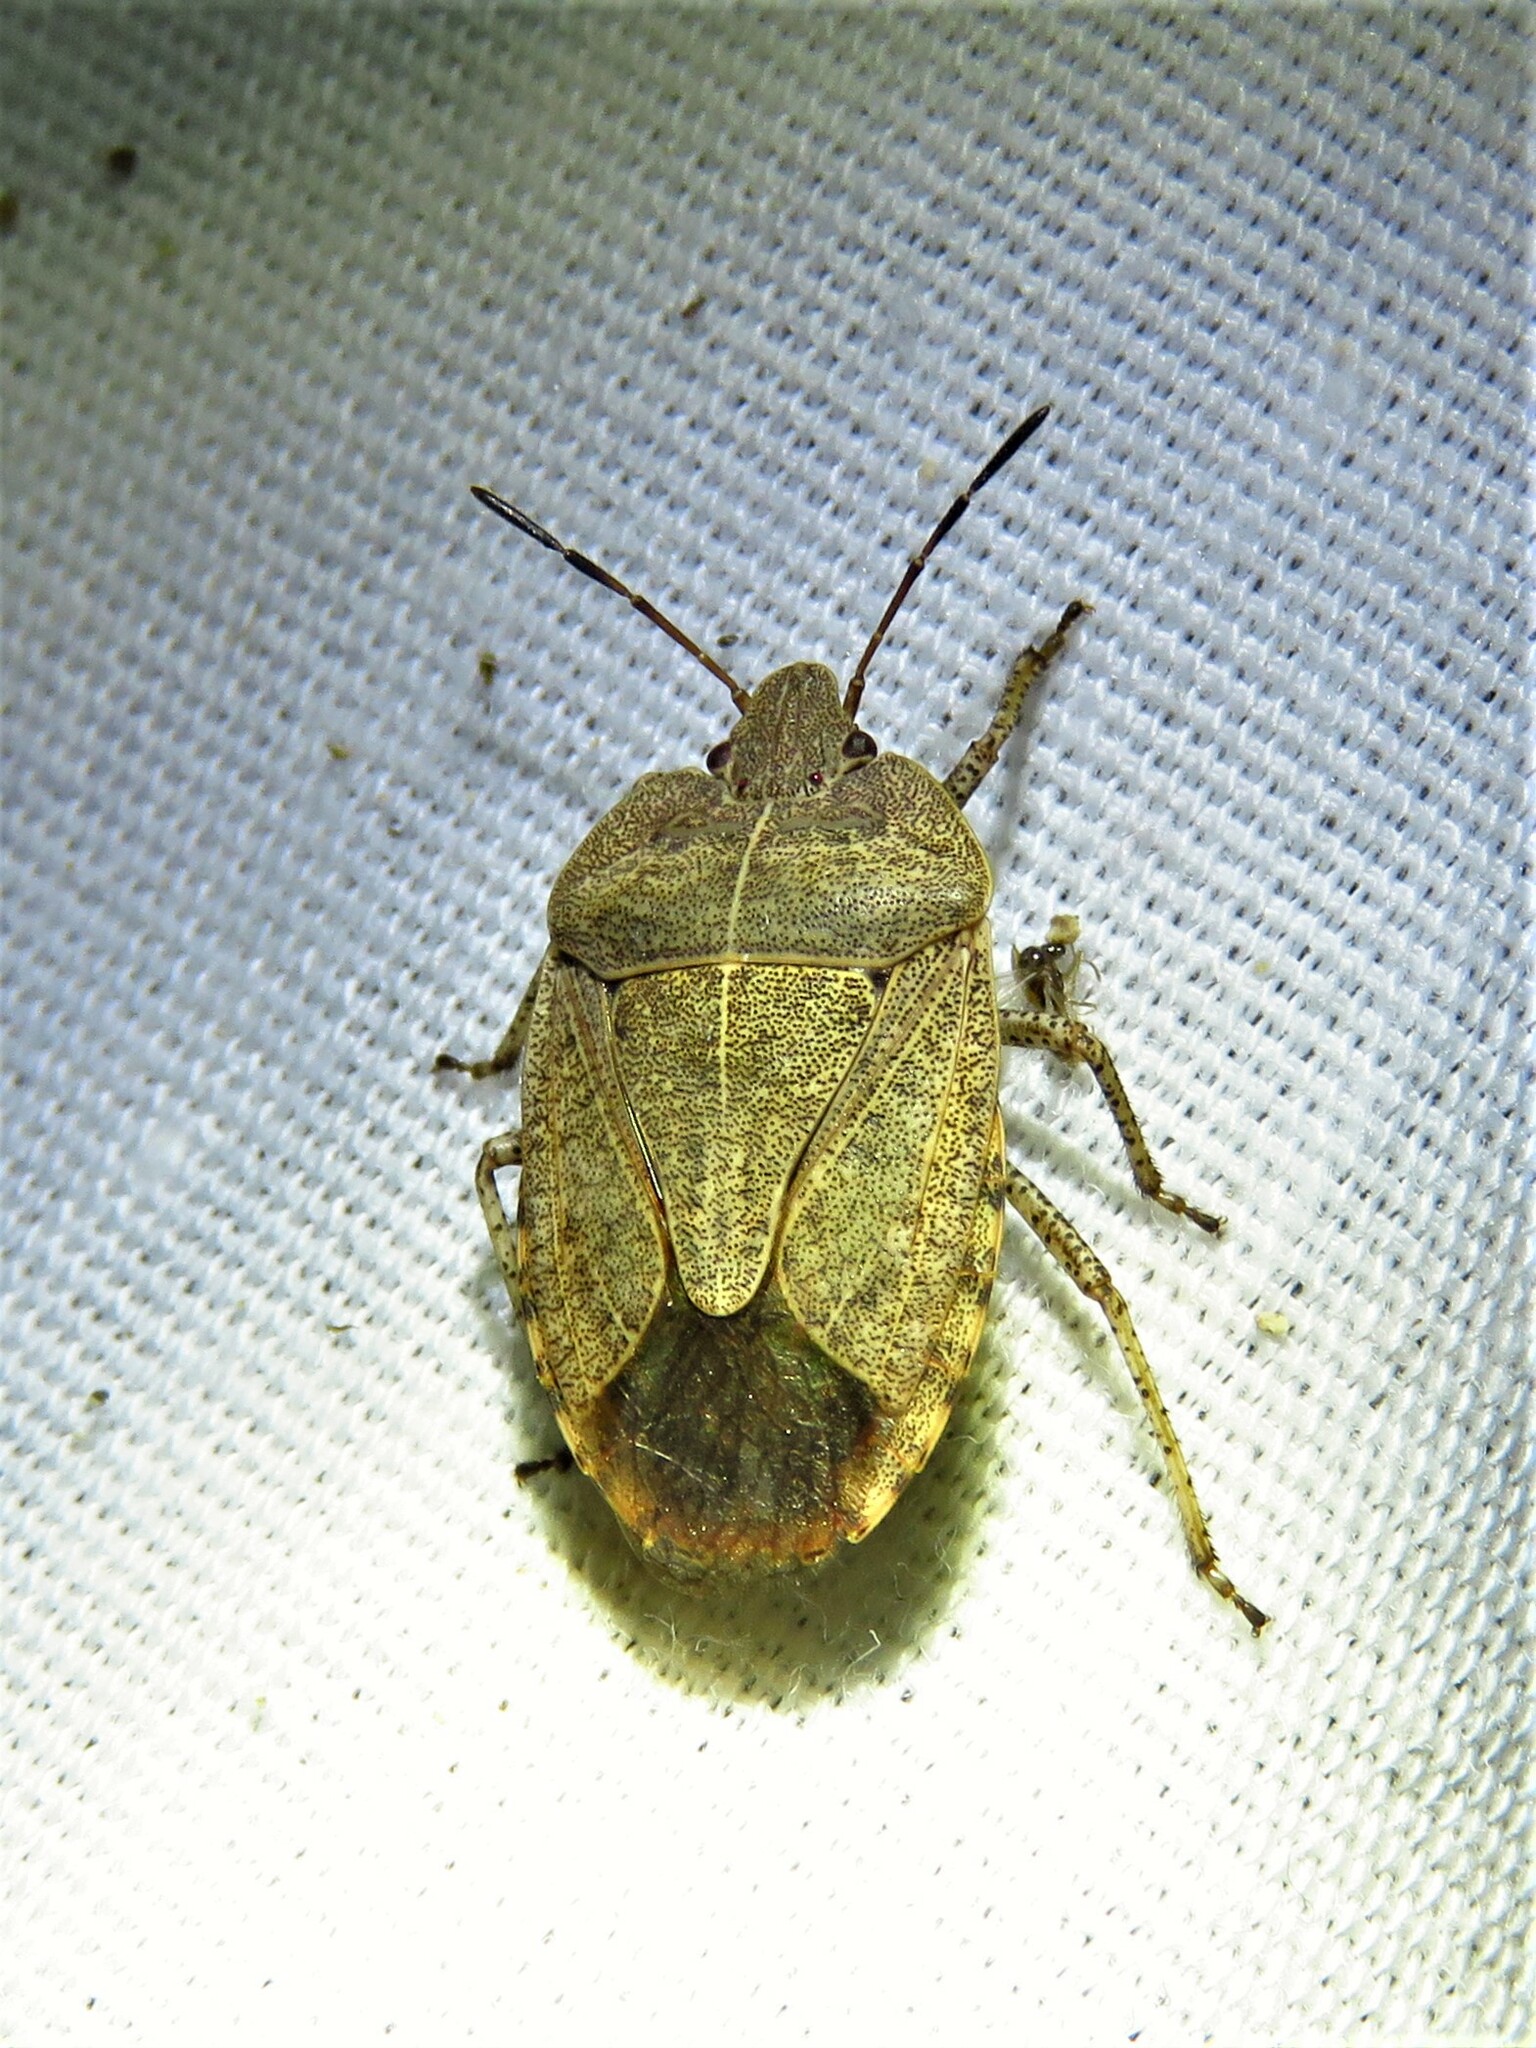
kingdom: Animalia
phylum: Arthropoda
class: Insecta
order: Hemiptera
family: Pentatomidae
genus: Menecles
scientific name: Menecles insertus
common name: Elf shoe stink bug
